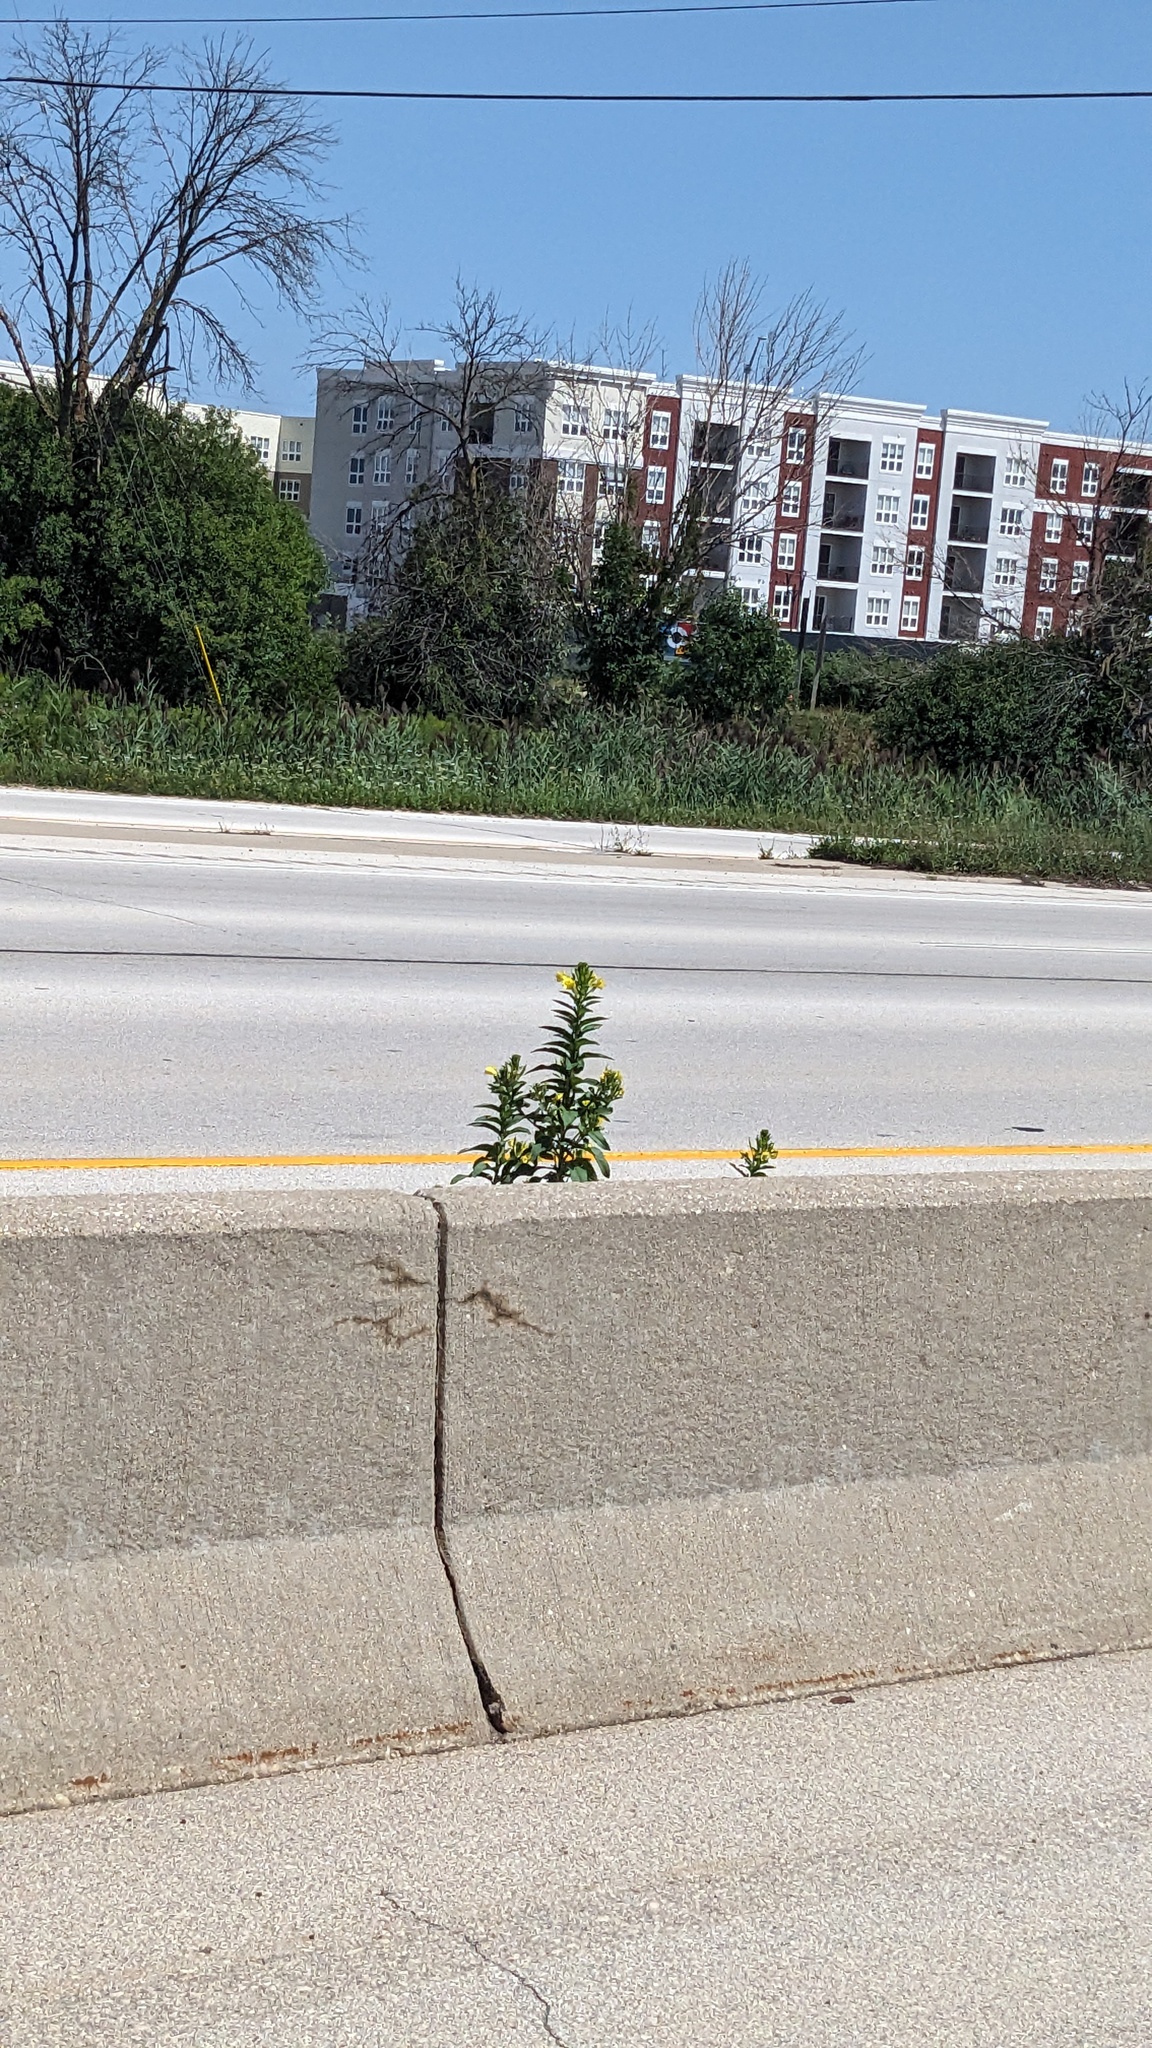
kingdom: Plantae
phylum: Tracheophyta
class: Magnoliopsida
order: Myrtales
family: Onagraceae
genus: Oenothera
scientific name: Oenothera biennis
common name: Common evening-primrose
